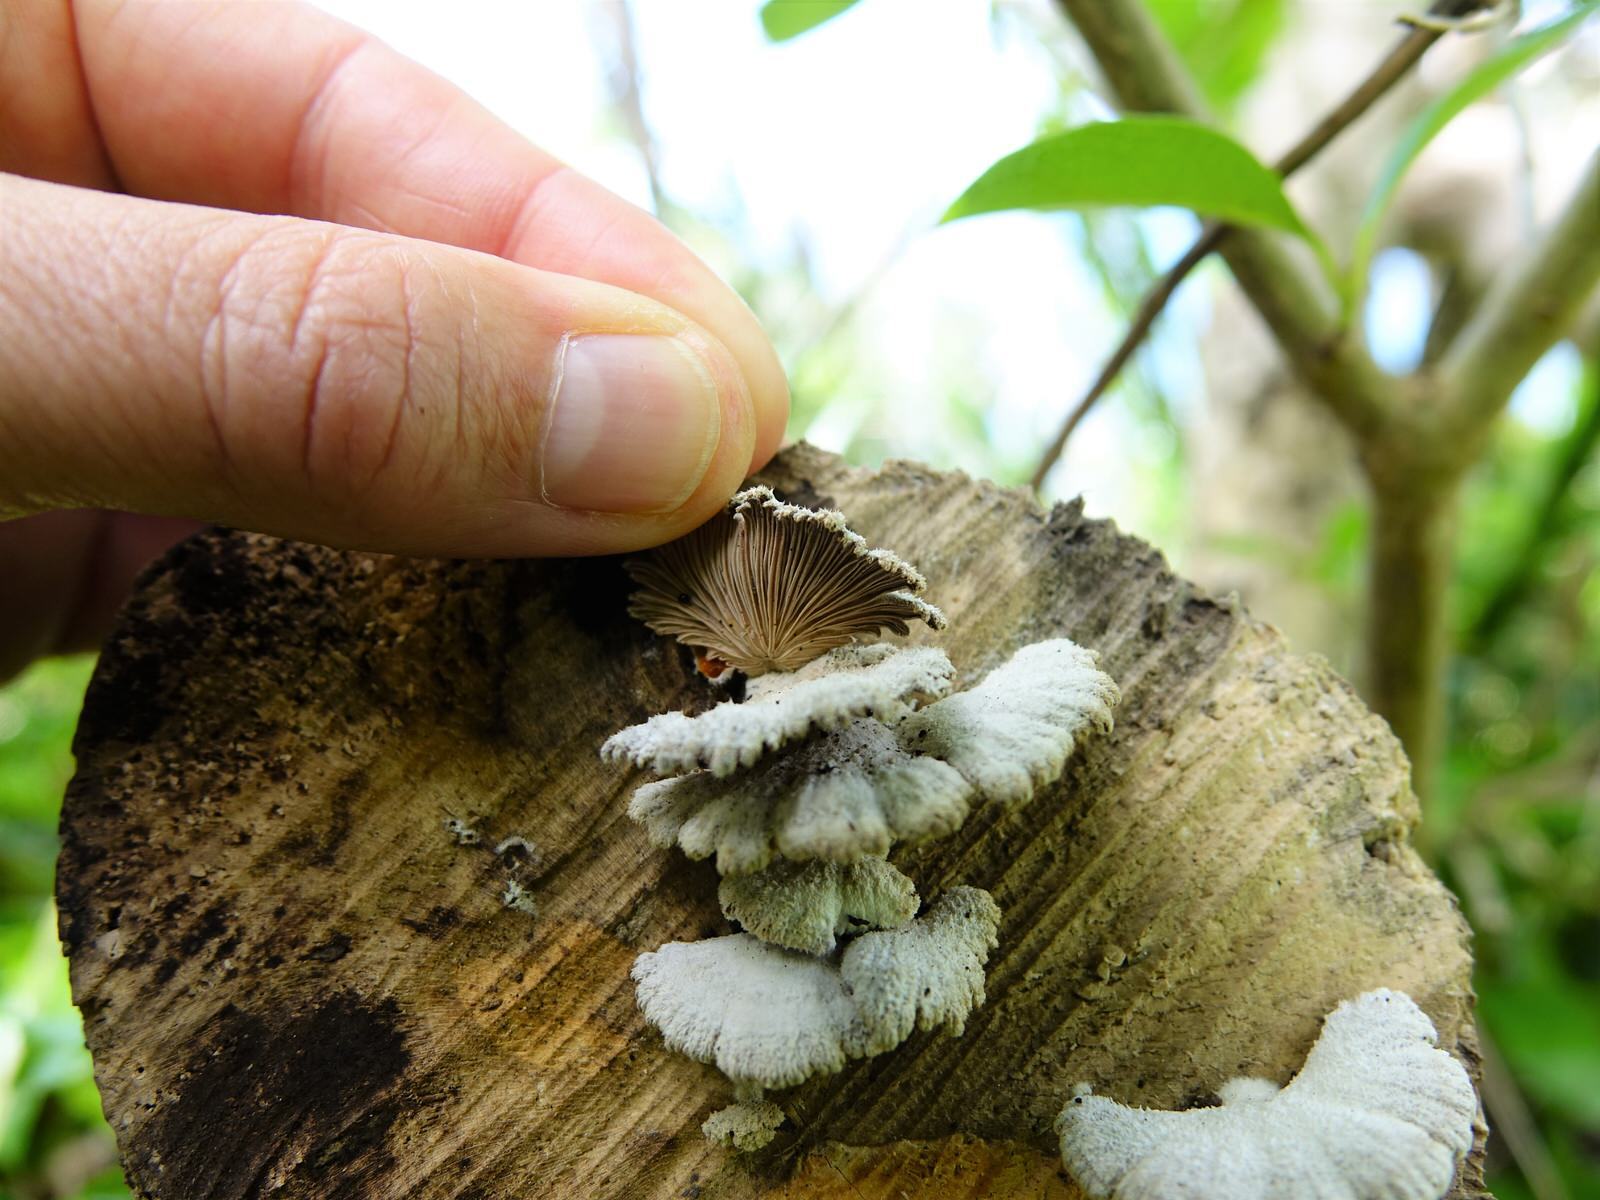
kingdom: Fungi
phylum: Basidiomycota
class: Agaricomycetes
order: Agaricales
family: Schizophyllaceae
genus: Schizophyllum
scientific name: Schizophyllum commune
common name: Common porecrust
